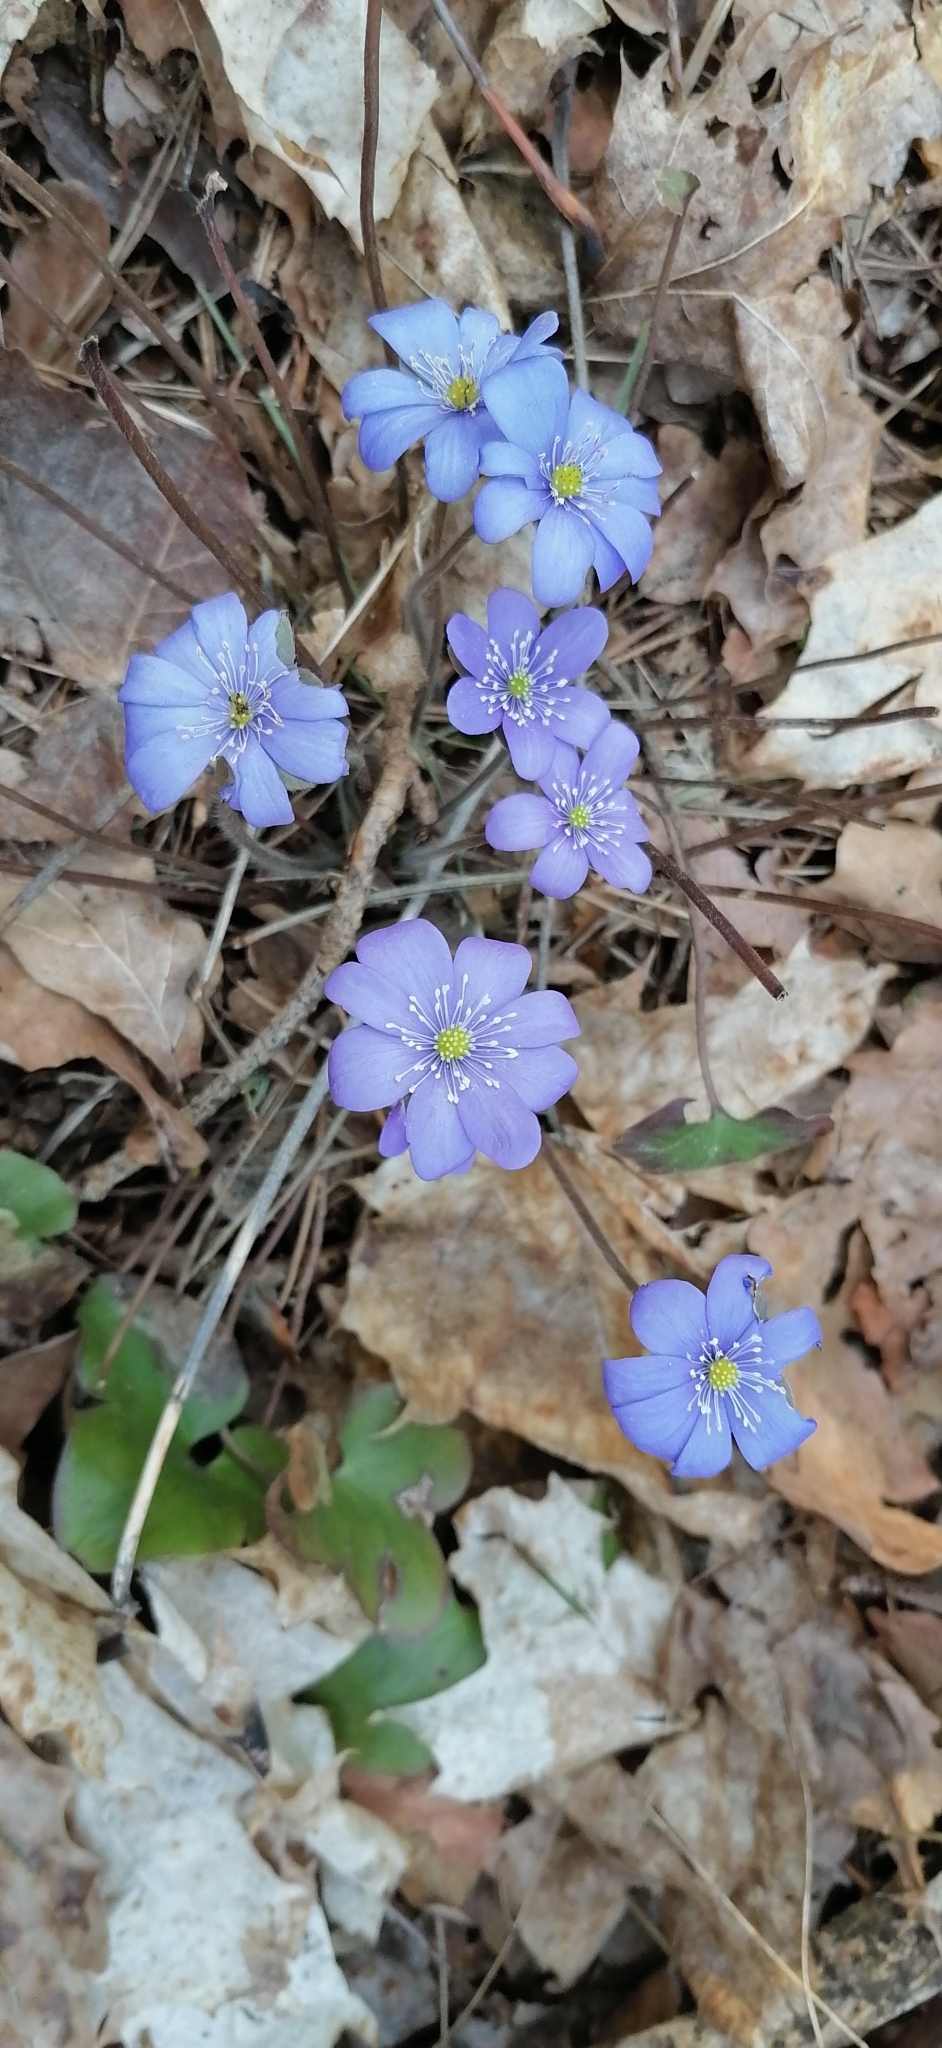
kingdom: Plantae
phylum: Tracheophyta
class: Magnoliopsida
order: Ranunculales
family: Ranunculaceae
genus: Hepatica
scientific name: Hepatica nobilis
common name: Liverleaf
